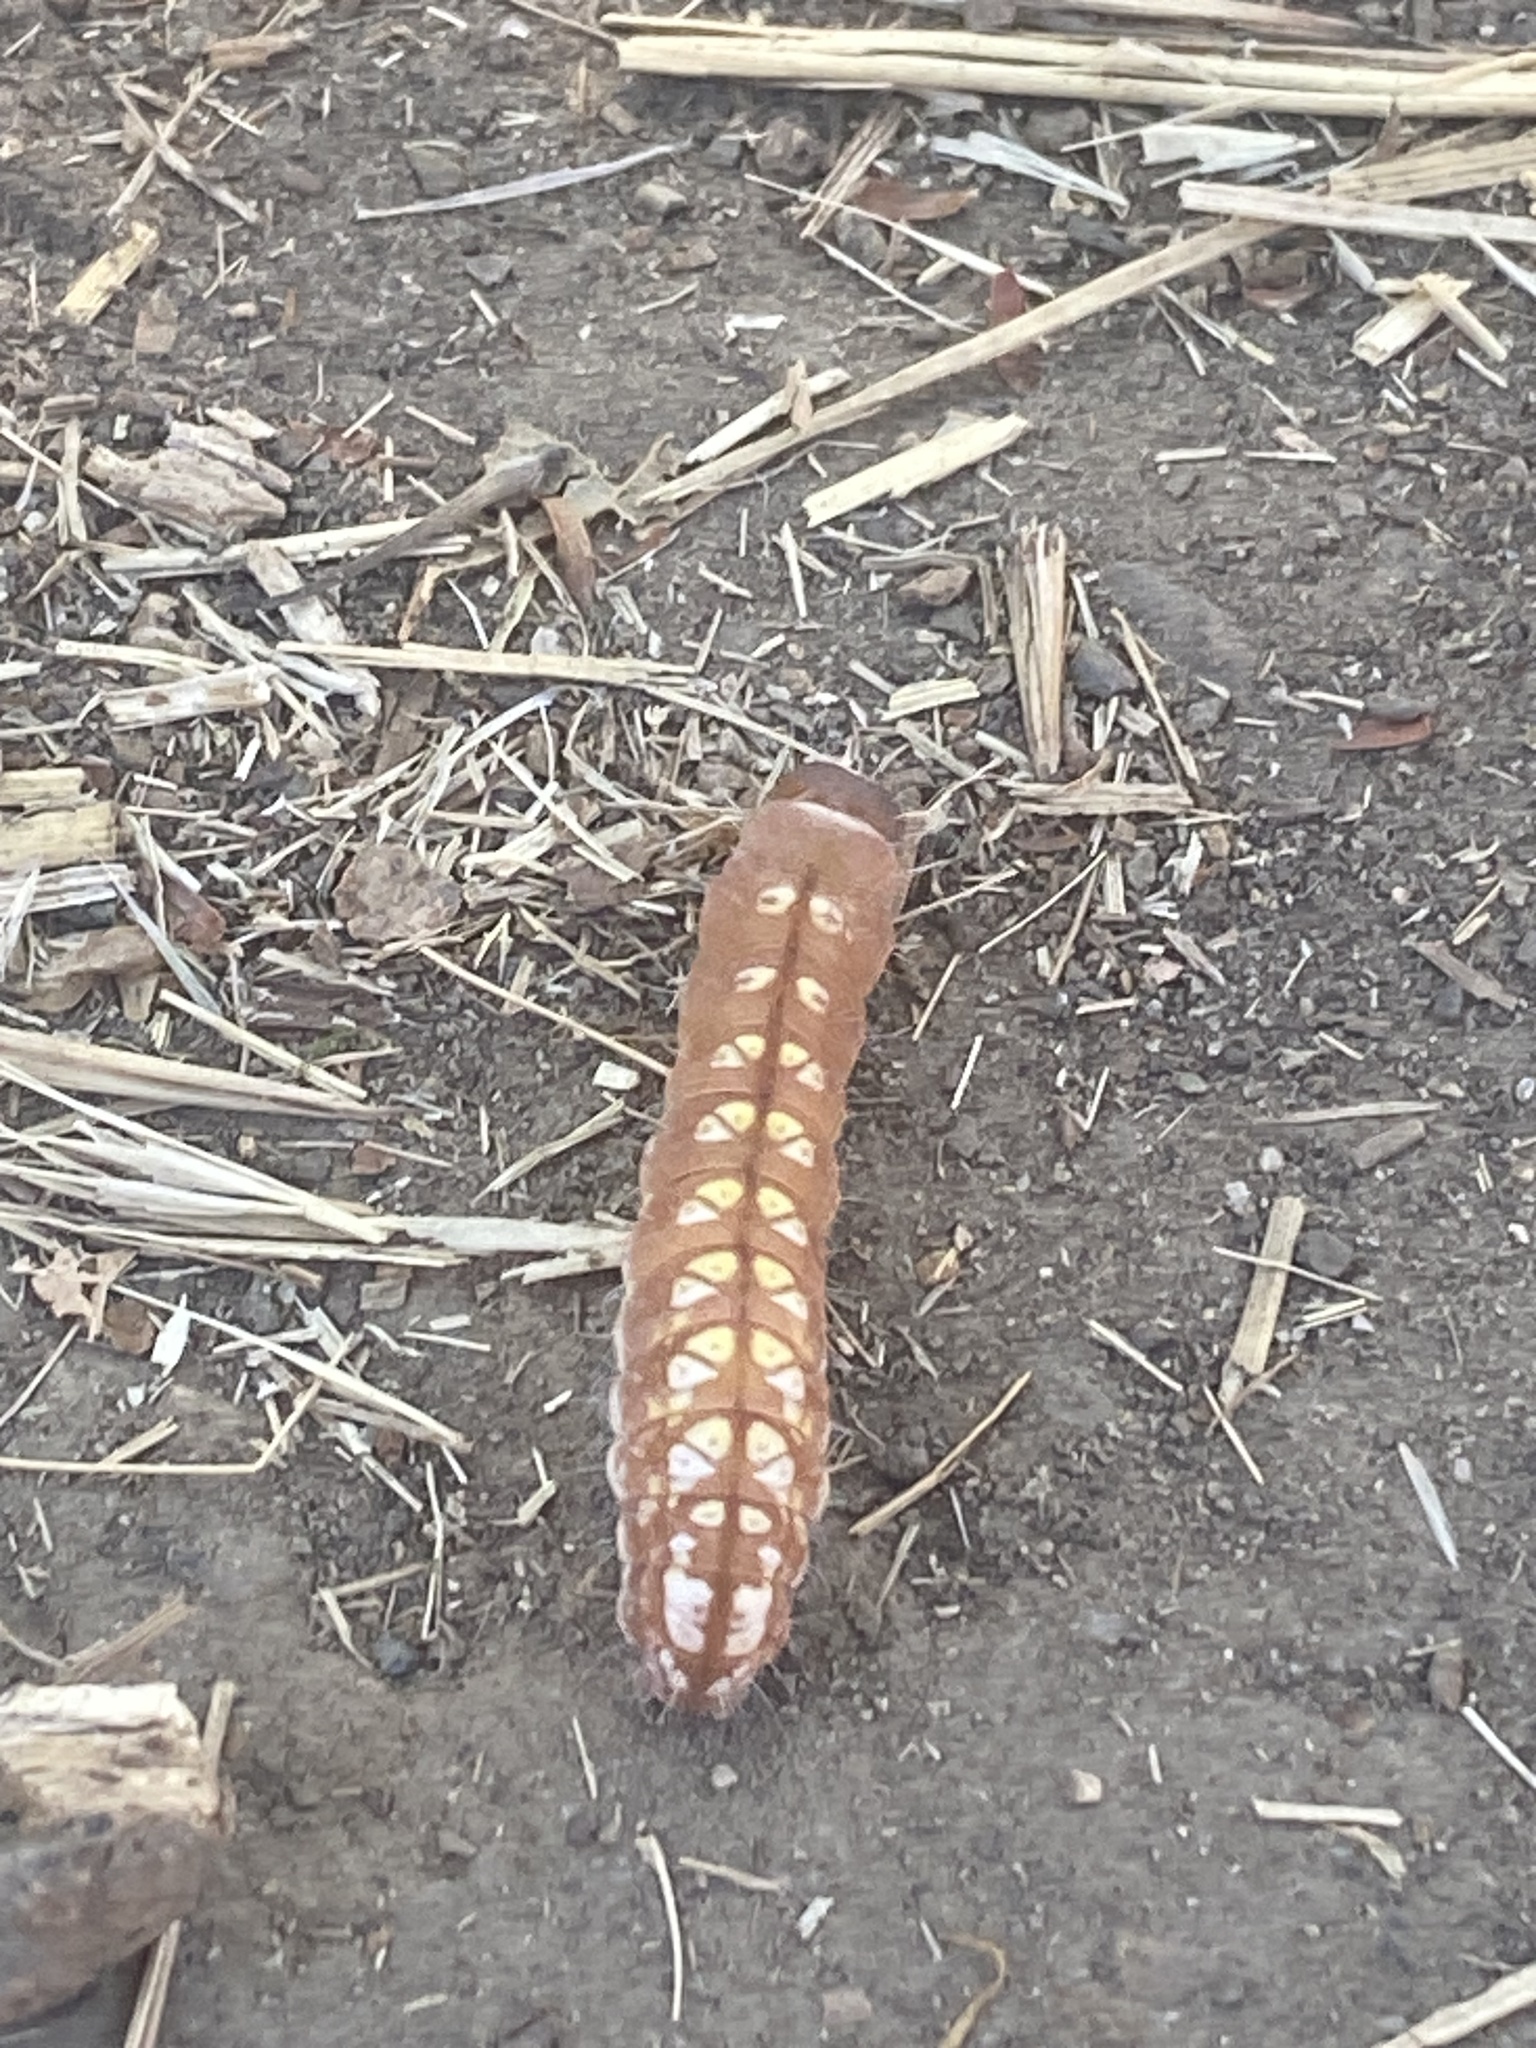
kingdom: Animalia
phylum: Arthropoda
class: Insecta
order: Lepidoptera
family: Noctuidae
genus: Acronicta
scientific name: Acronicta marmorata
